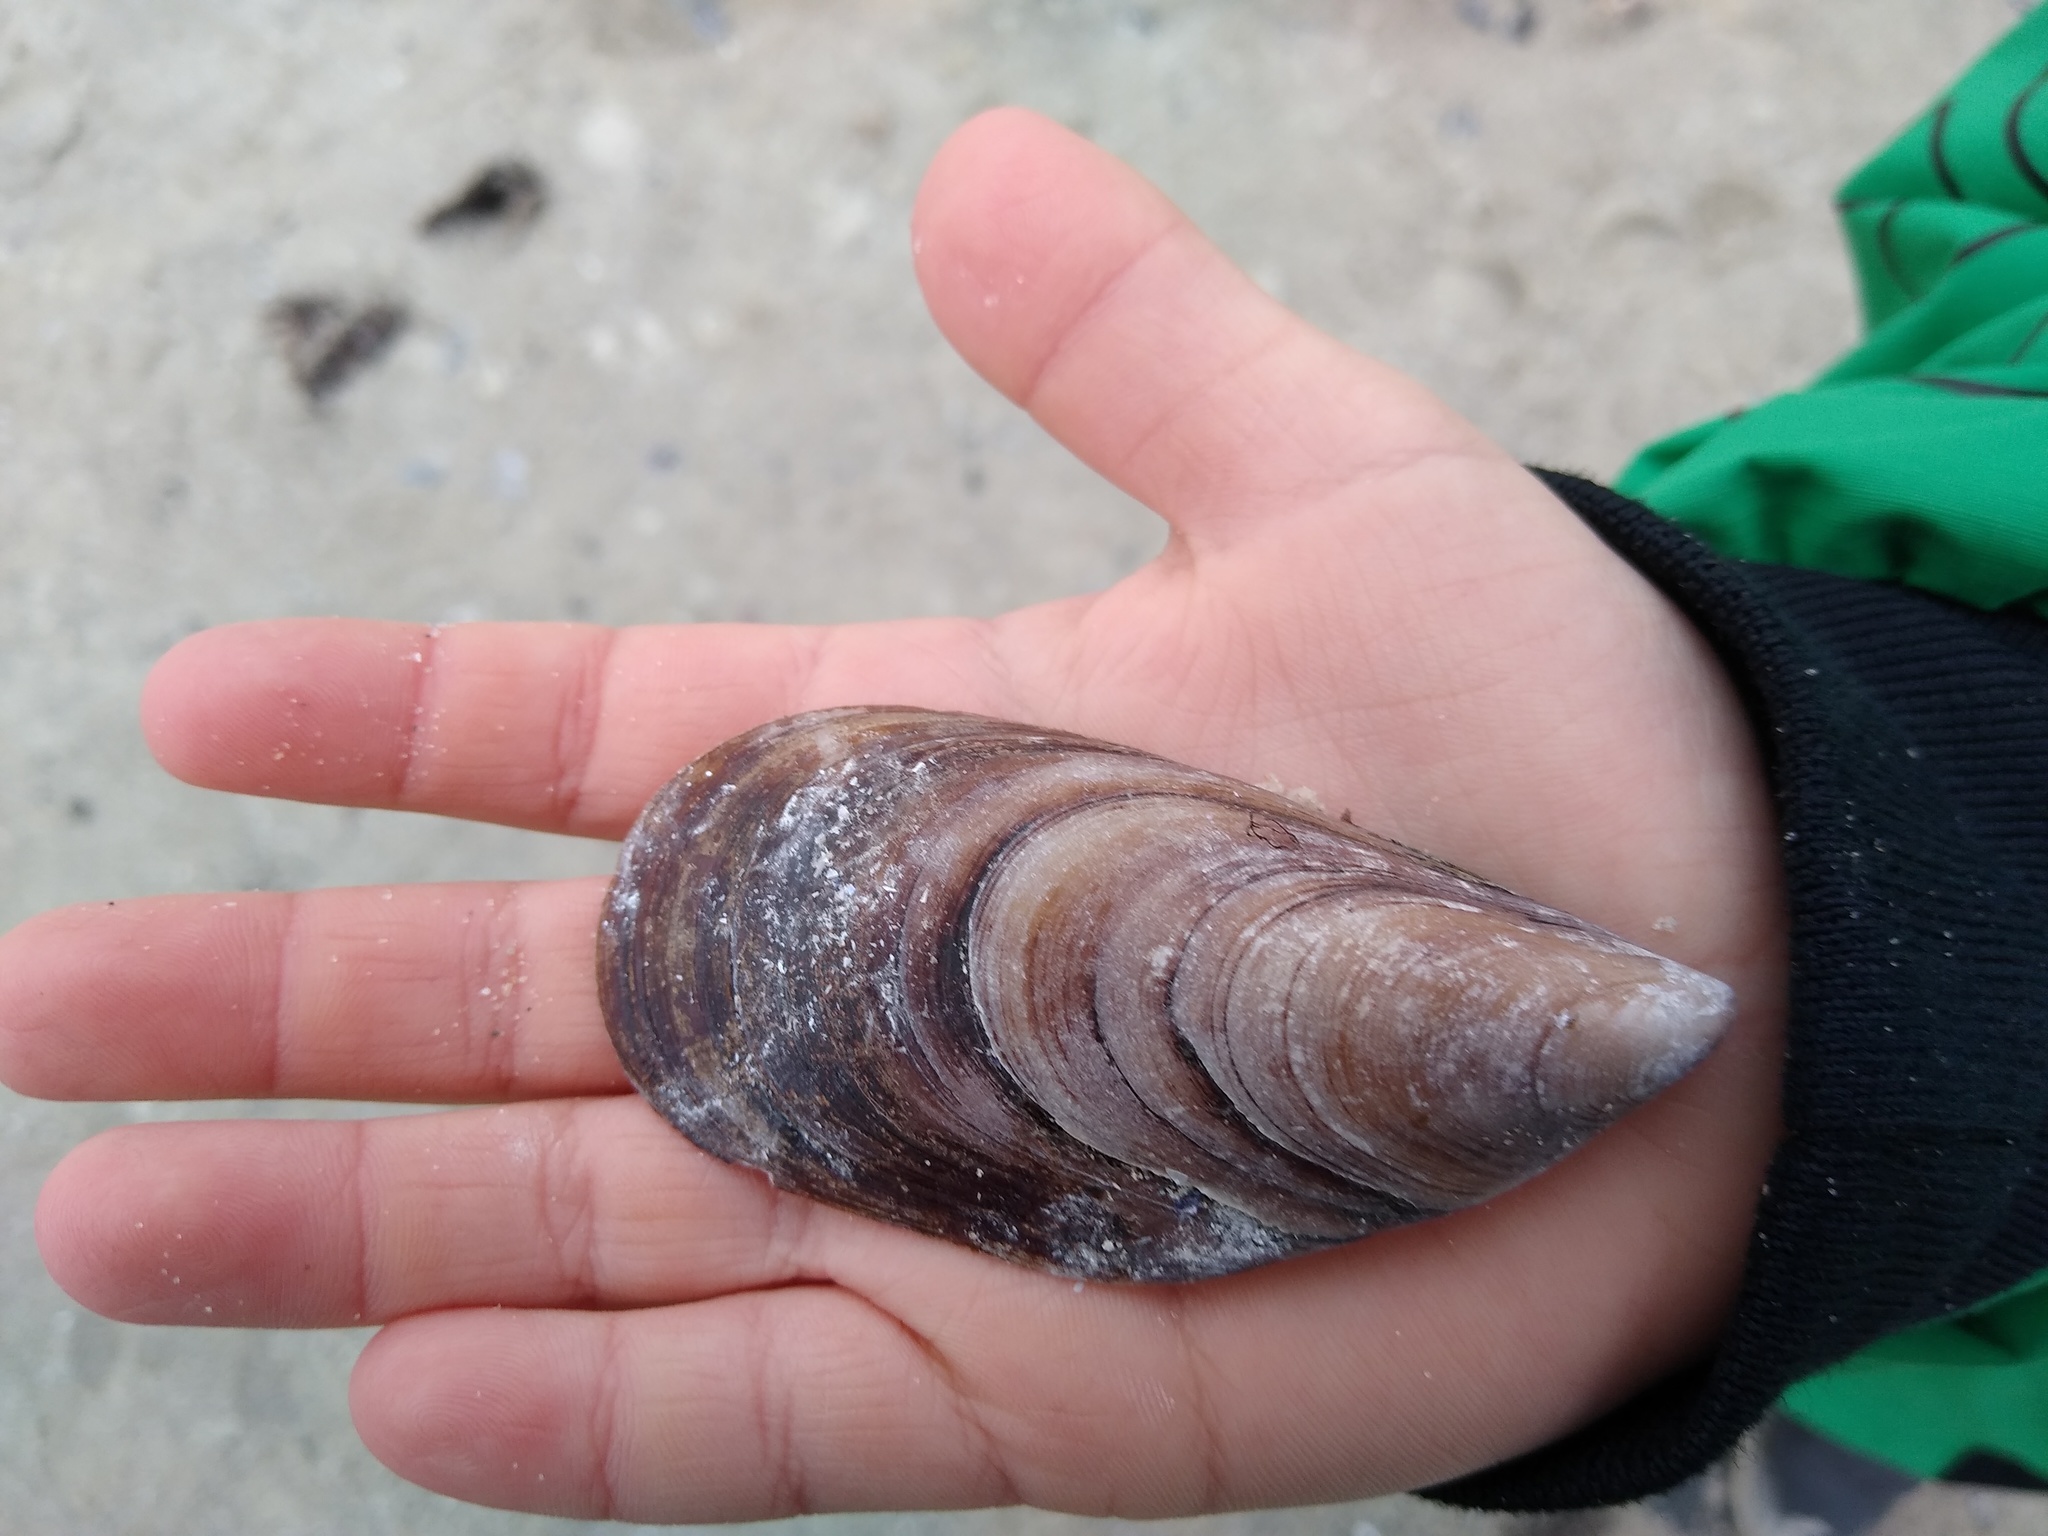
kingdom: Animalia
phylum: Mollusca
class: Bivalvia
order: Mytilida
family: Mytilidae
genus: Mytilus
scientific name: Mytilus galloprovincialis
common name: Mediterranean mussel
